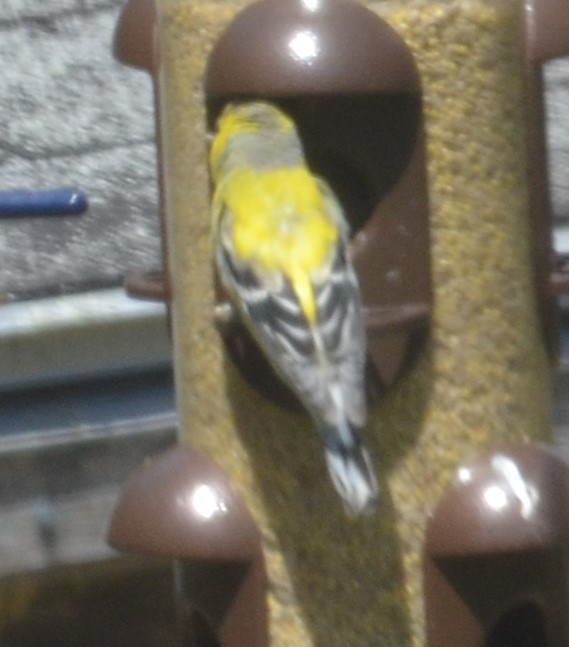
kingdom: Animalia
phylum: Chordata
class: Aves
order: Passeriformes
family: Fringillidae
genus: Spinus
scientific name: Spinus tristis
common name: American goldfinch
